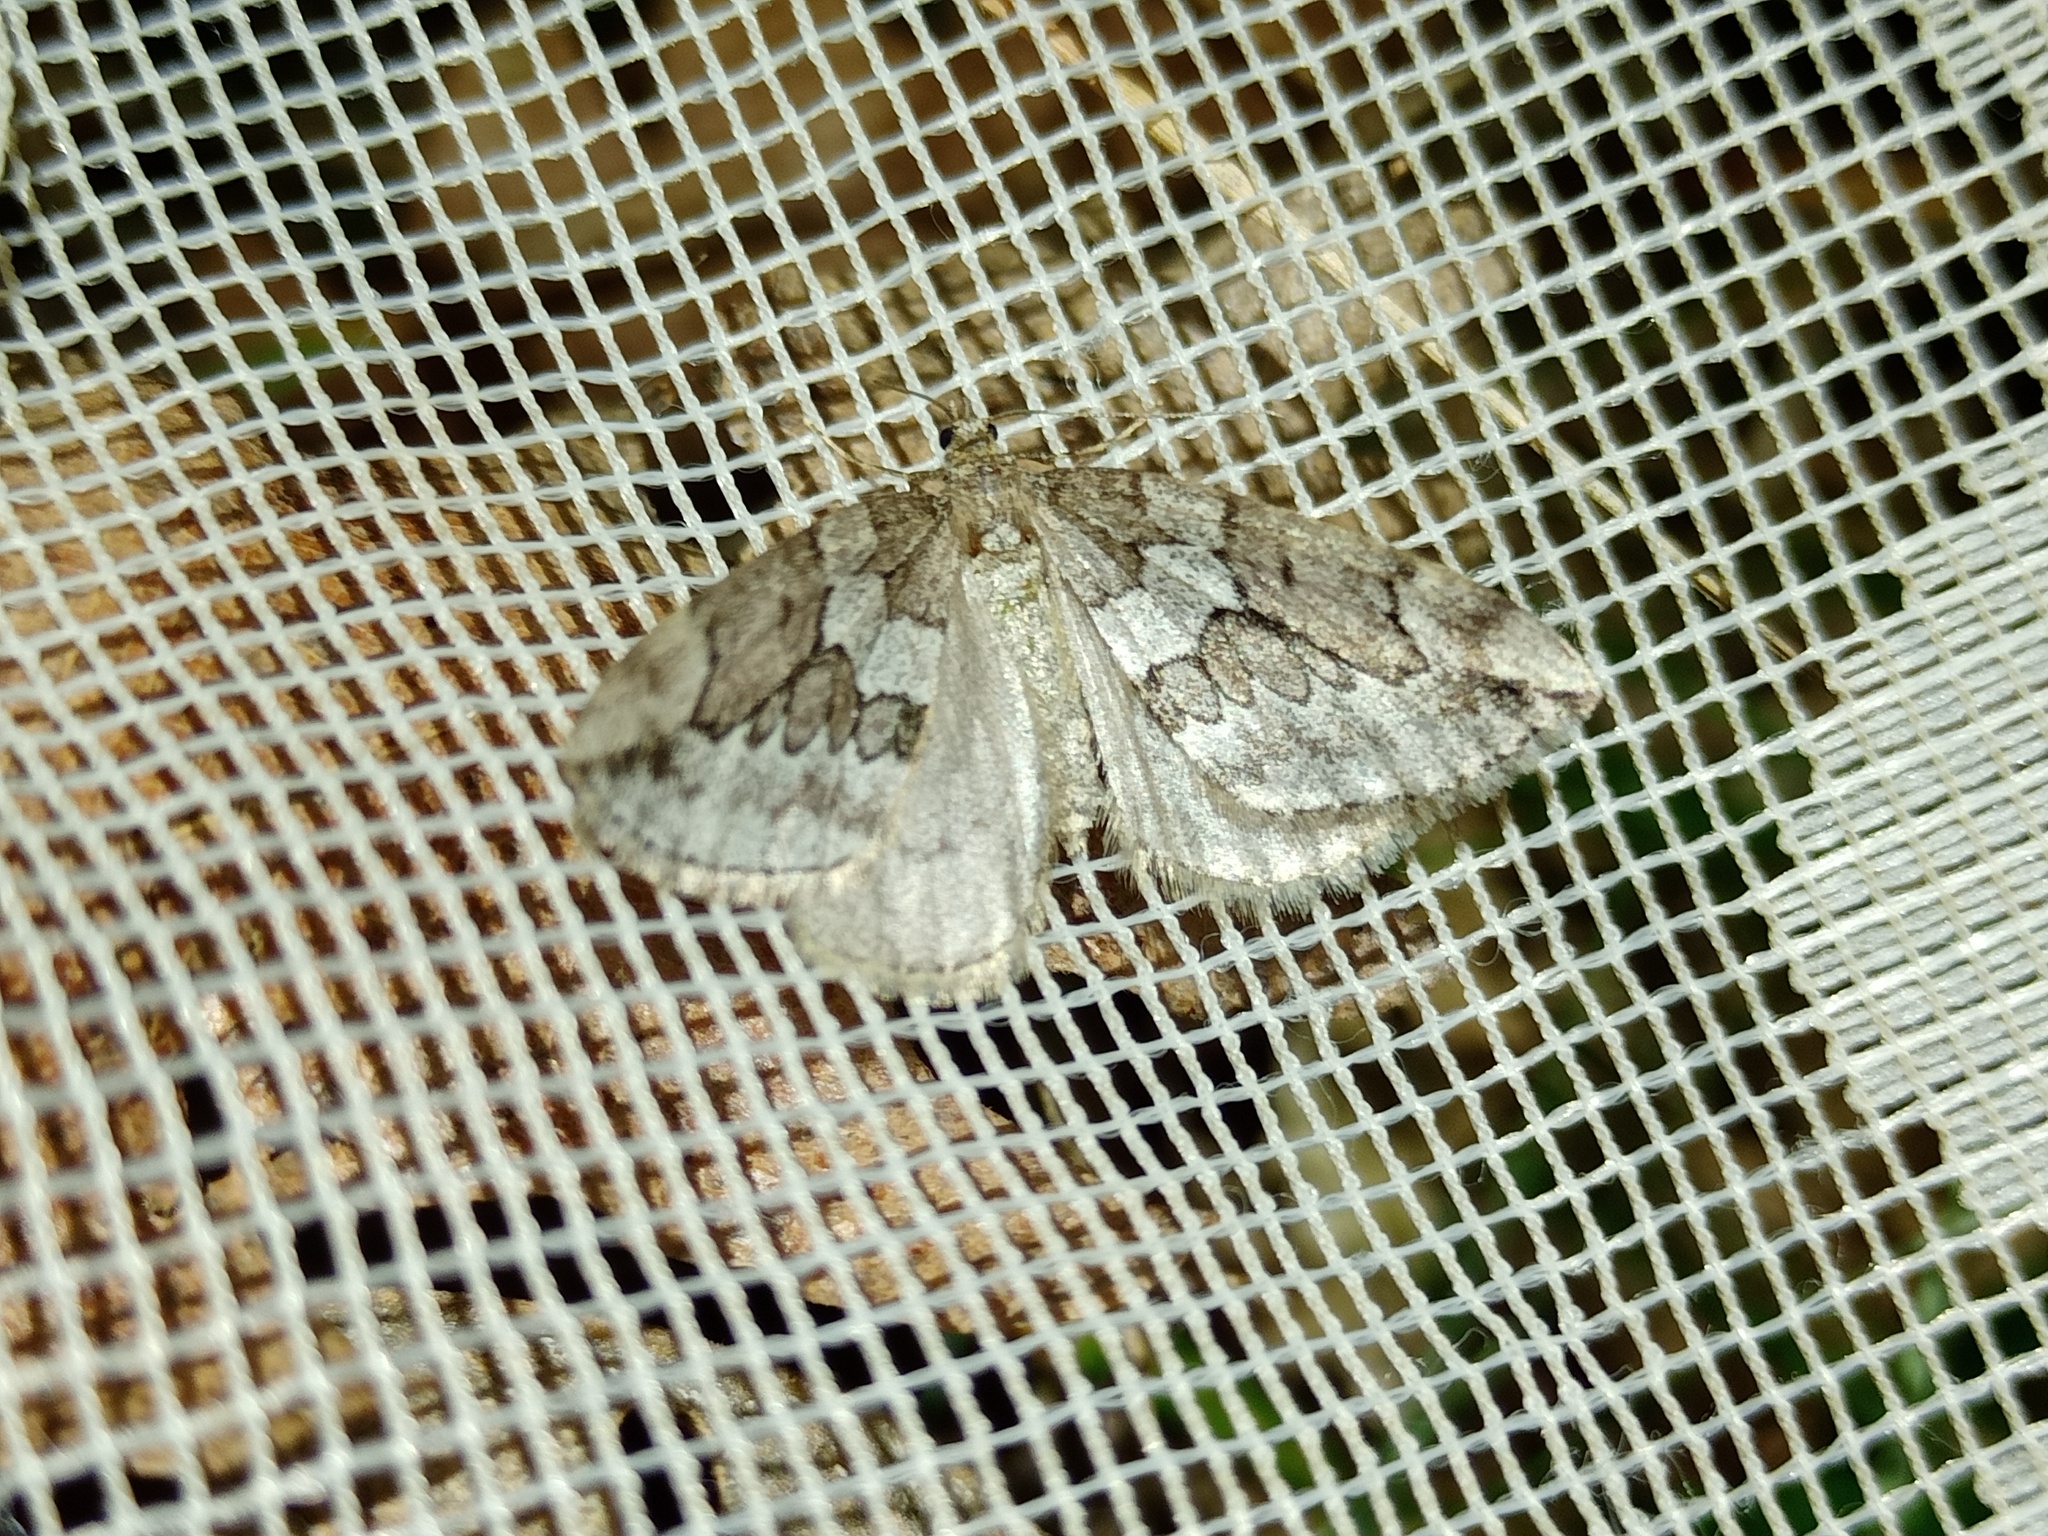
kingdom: Animalia
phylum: Arthropoda
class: Insecta
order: Lepidoptera
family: Geometridae
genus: Thera
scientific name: Thera juniperata
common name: Juniper carpet
